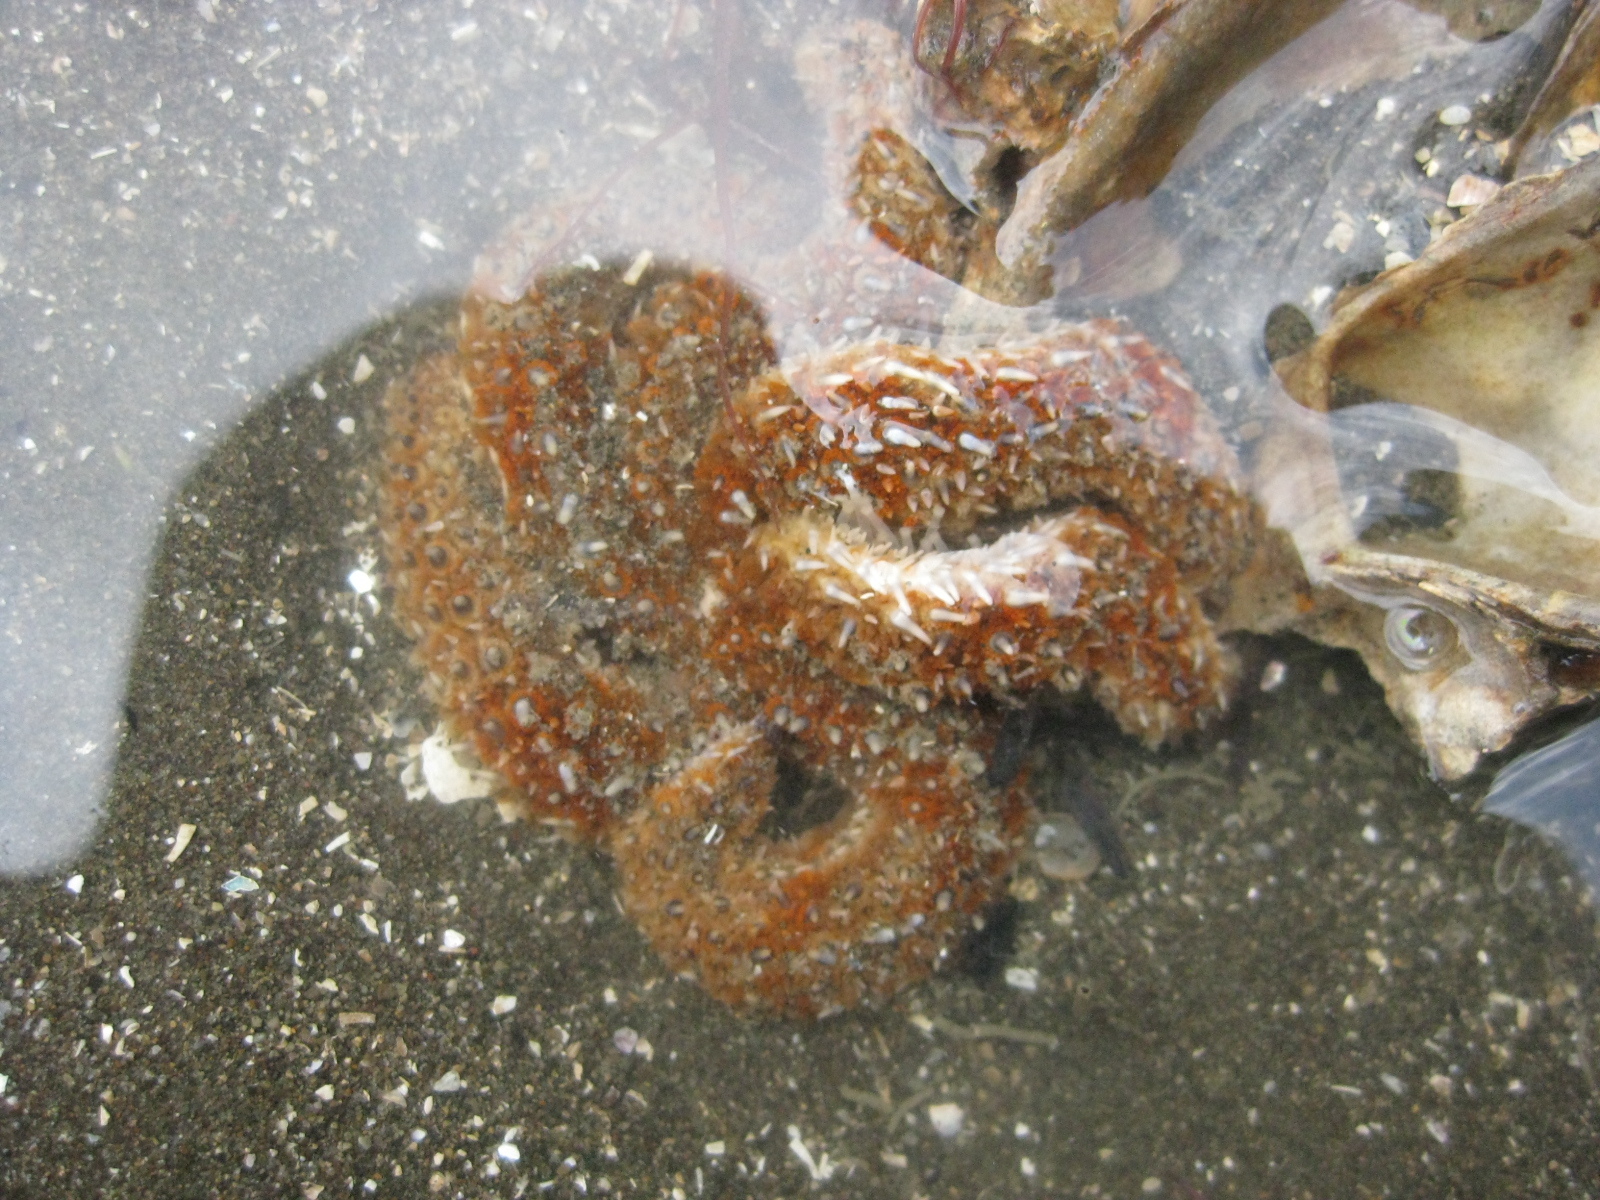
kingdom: Animalia
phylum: Echinodermata
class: Asteroidea
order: Forcipulatida
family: Asteriidae
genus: Coscinasterias
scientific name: Coscinasterias muricata
